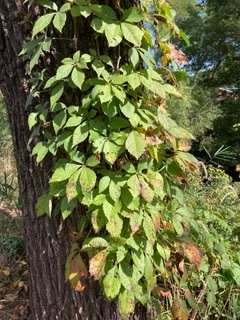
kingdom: Plantae
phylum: Tracheophyta
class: Magnoliopsida
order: Vitales
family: Vitaceae
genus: Parthenocissus
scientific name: Parthenocissus quinquefolia
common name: Virginia-creeper
